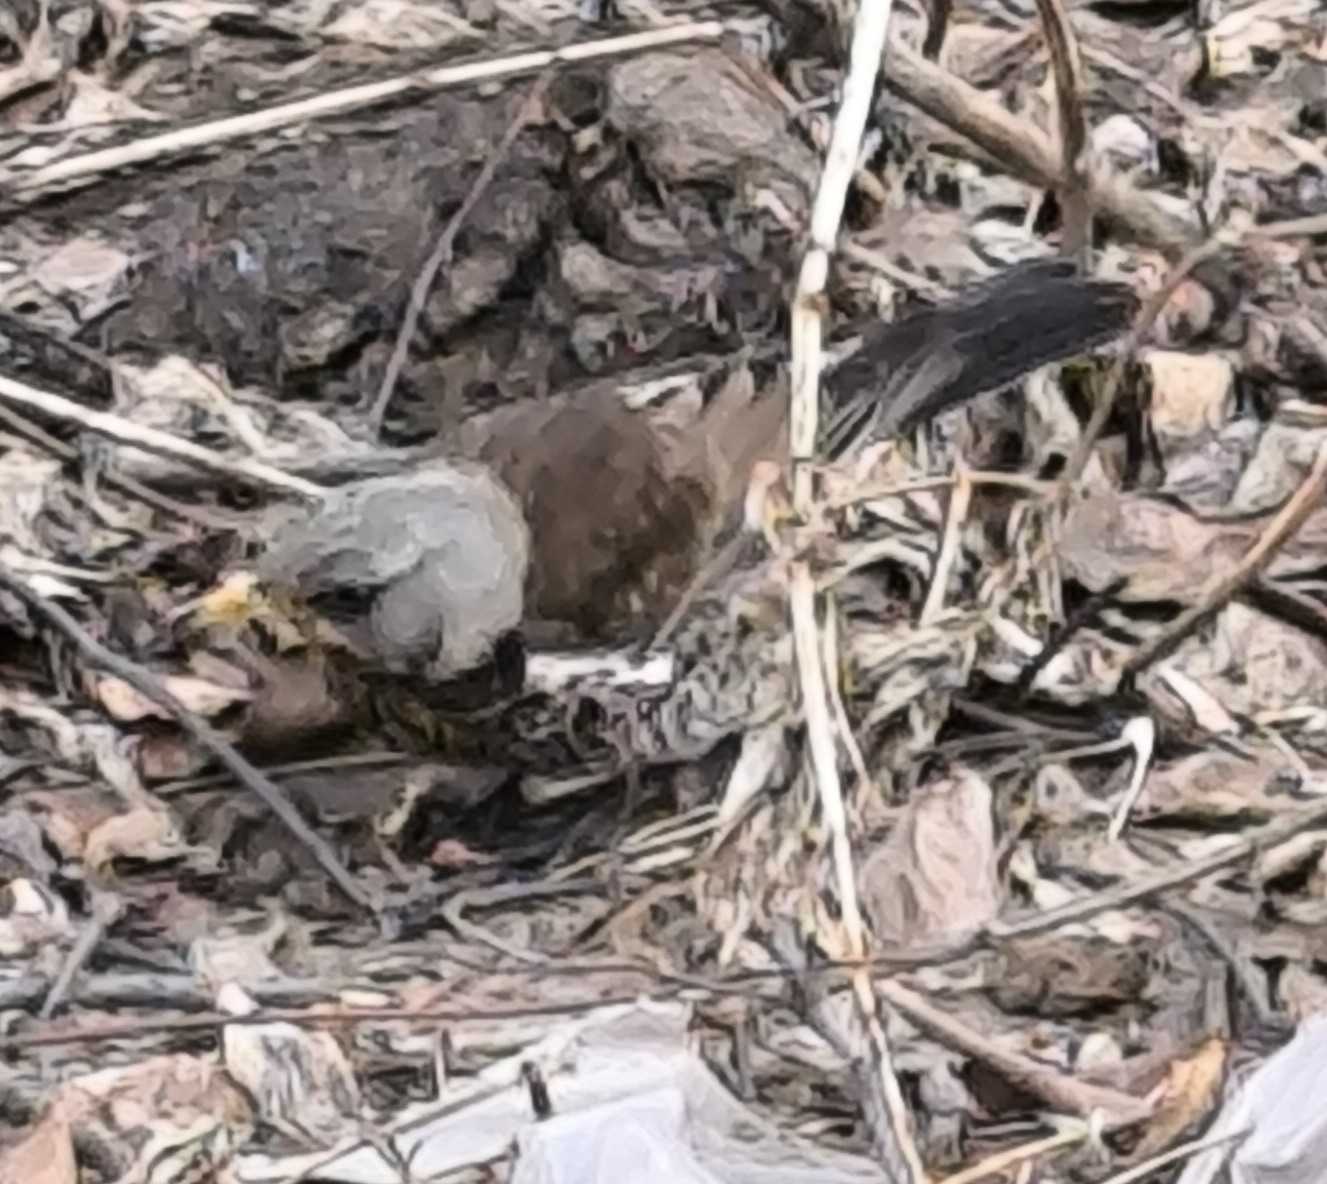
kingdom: Animalia
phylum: Chordata
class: Aves
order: Passeriformes
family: Turdidae
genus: Turdus
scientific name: Turdus pilaris
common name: Fieldfare
